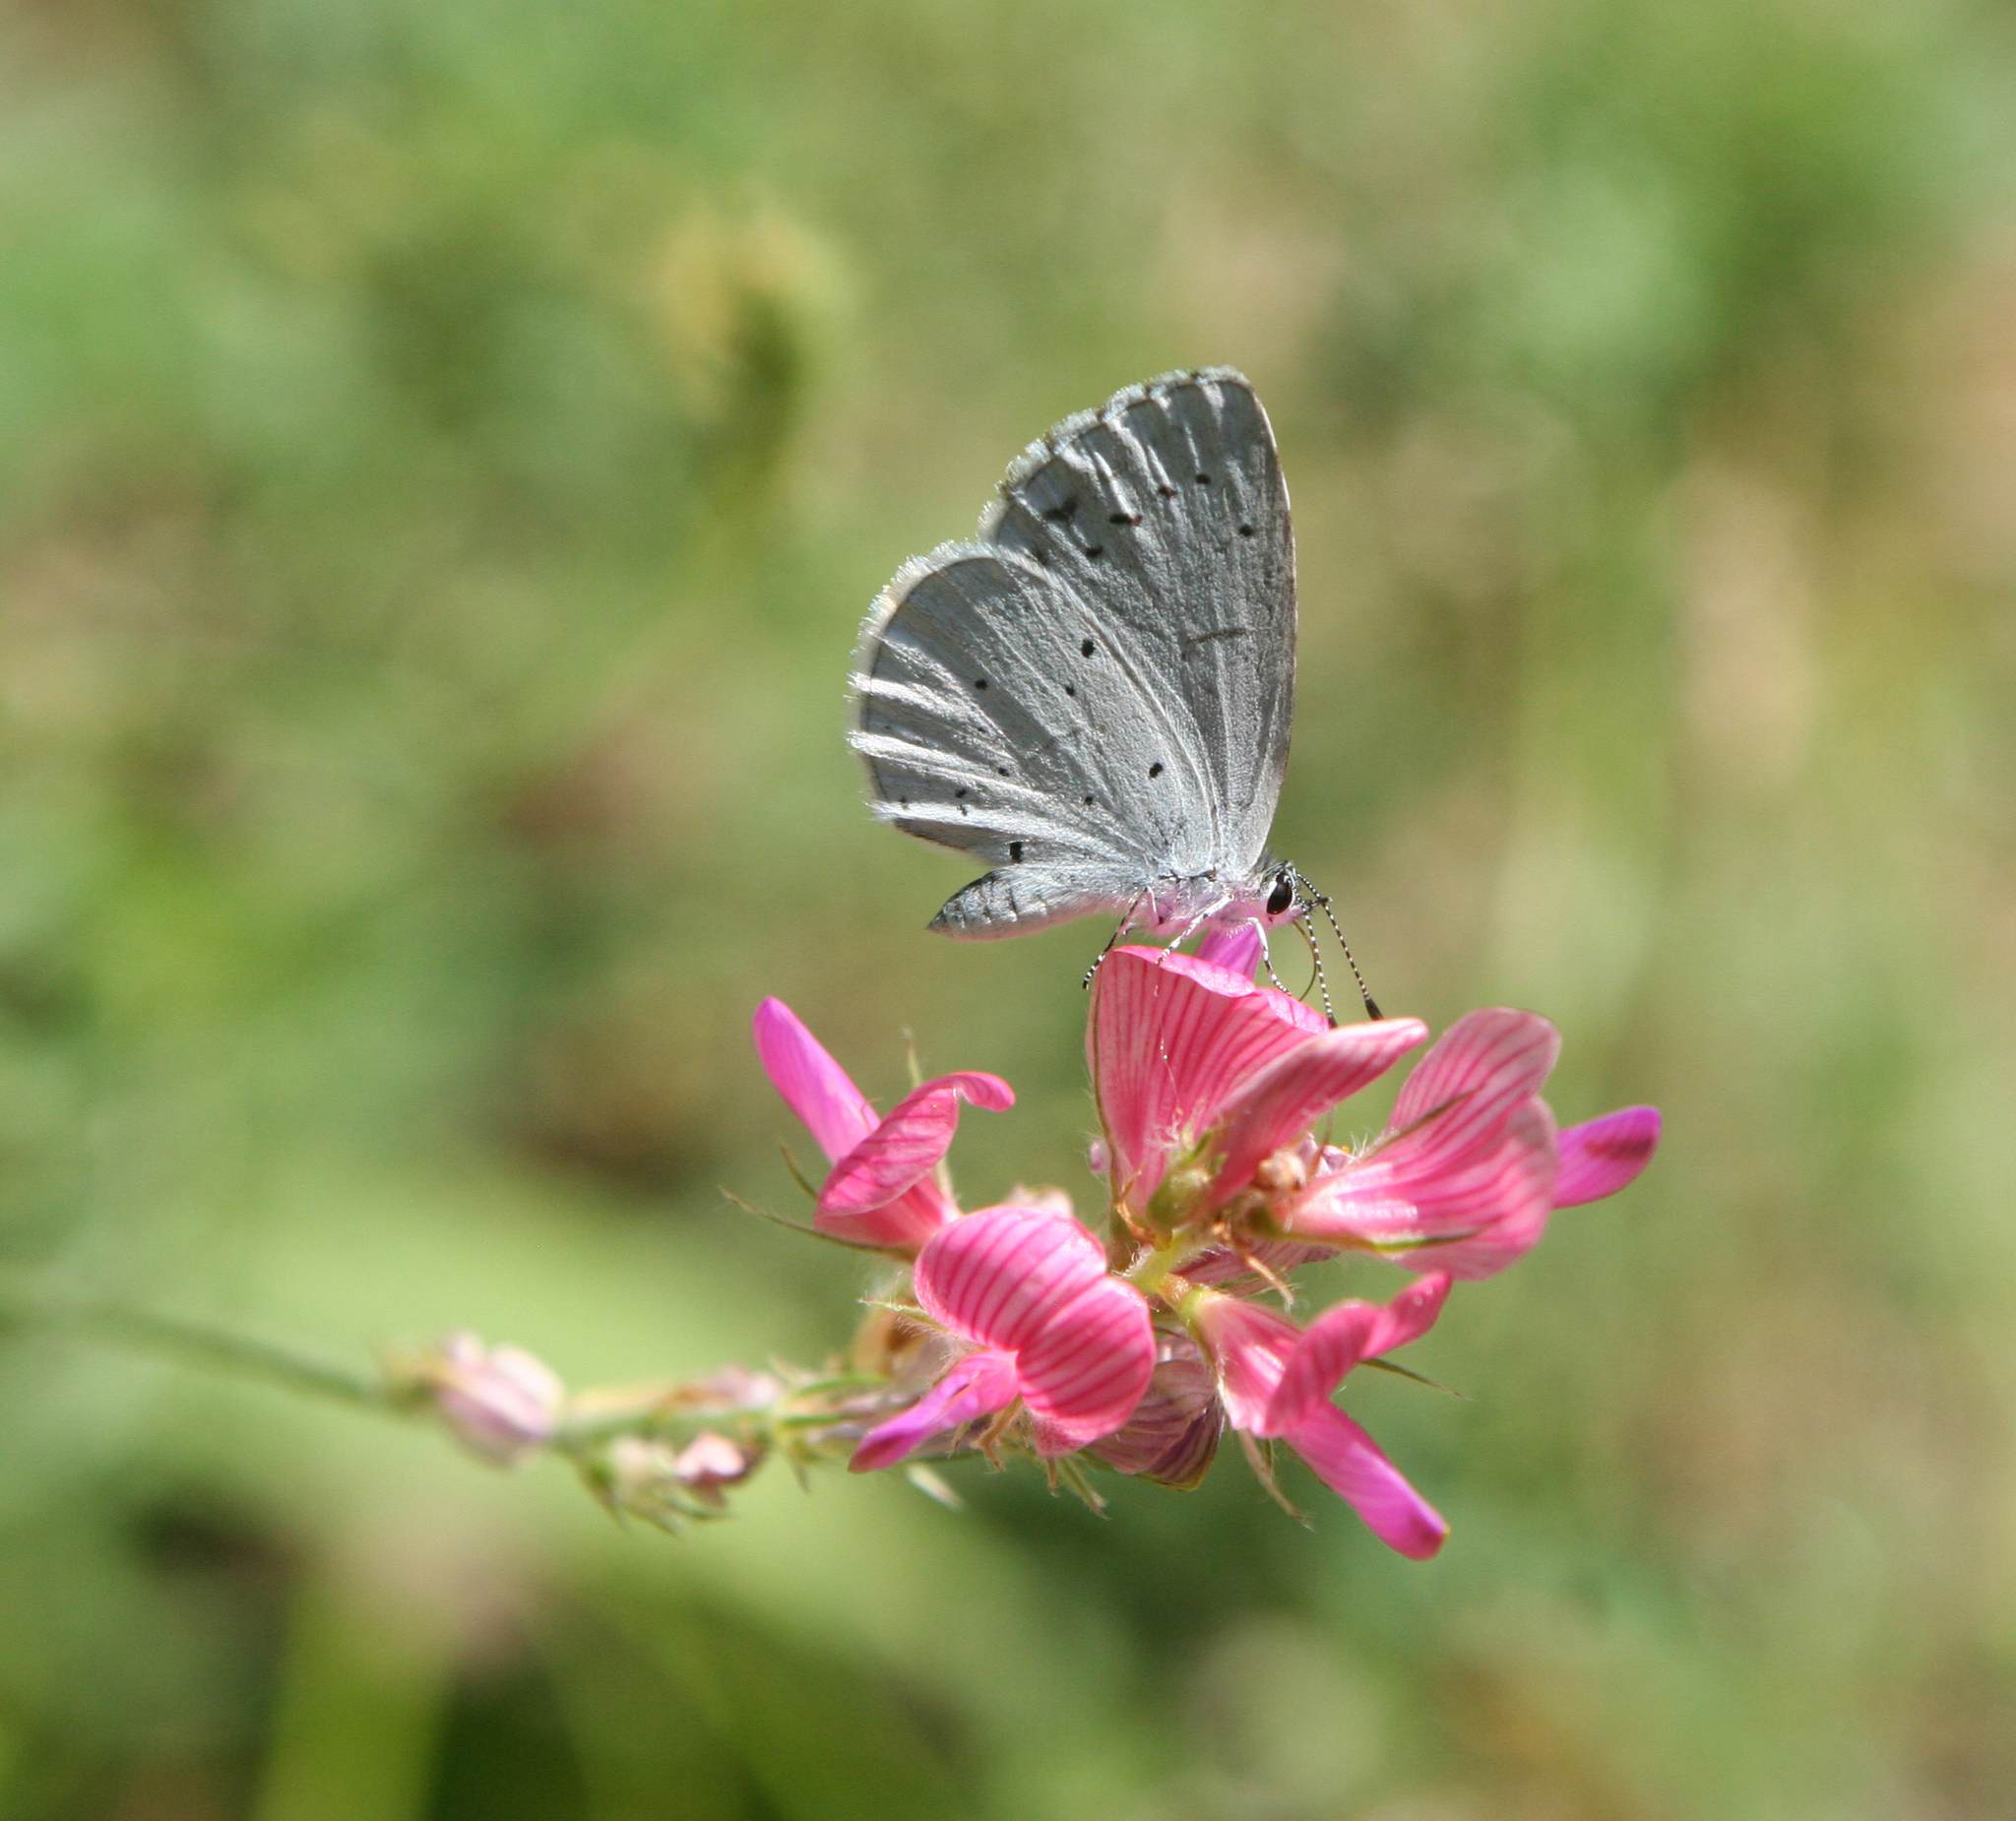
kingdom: Plantae
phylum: Tracheophyta
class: Magnoliopsida
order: Fabales
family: Fabaceae
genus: Onobrychis
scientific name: Onobrychis arenaria
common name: Sand esparcet
